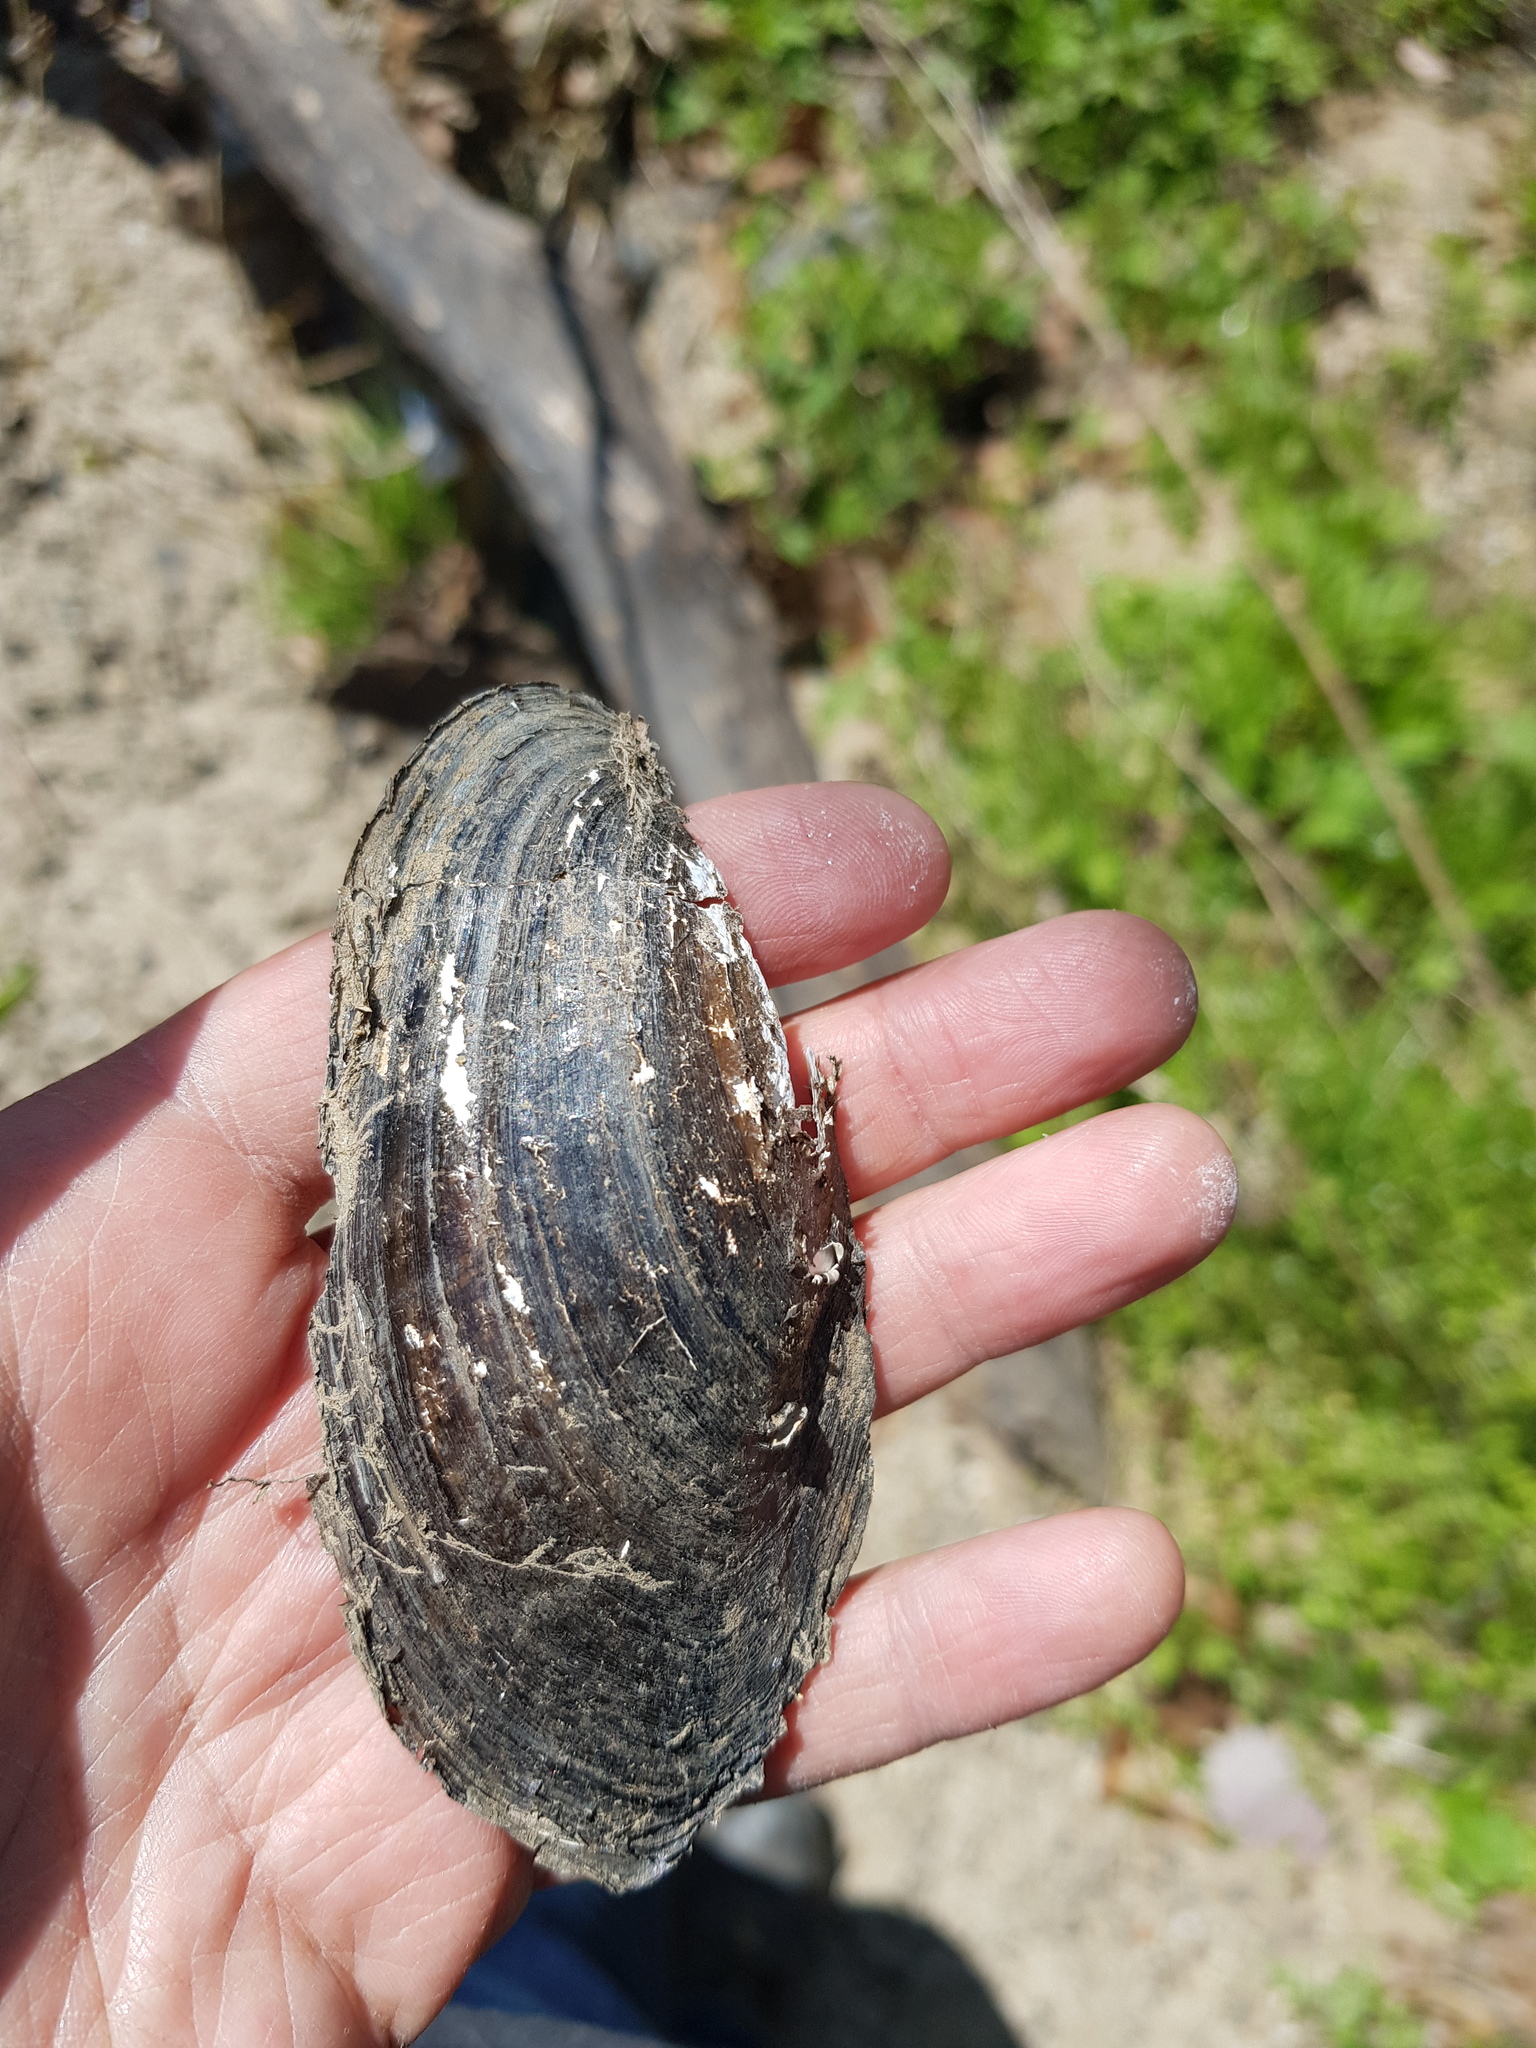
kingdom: Animalia
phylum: Mollusca
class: Bivalvia
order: Unionida
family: Unionidae
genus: Utterbackia
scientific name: Utterbackia imbecillis
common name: Paper pondshell
